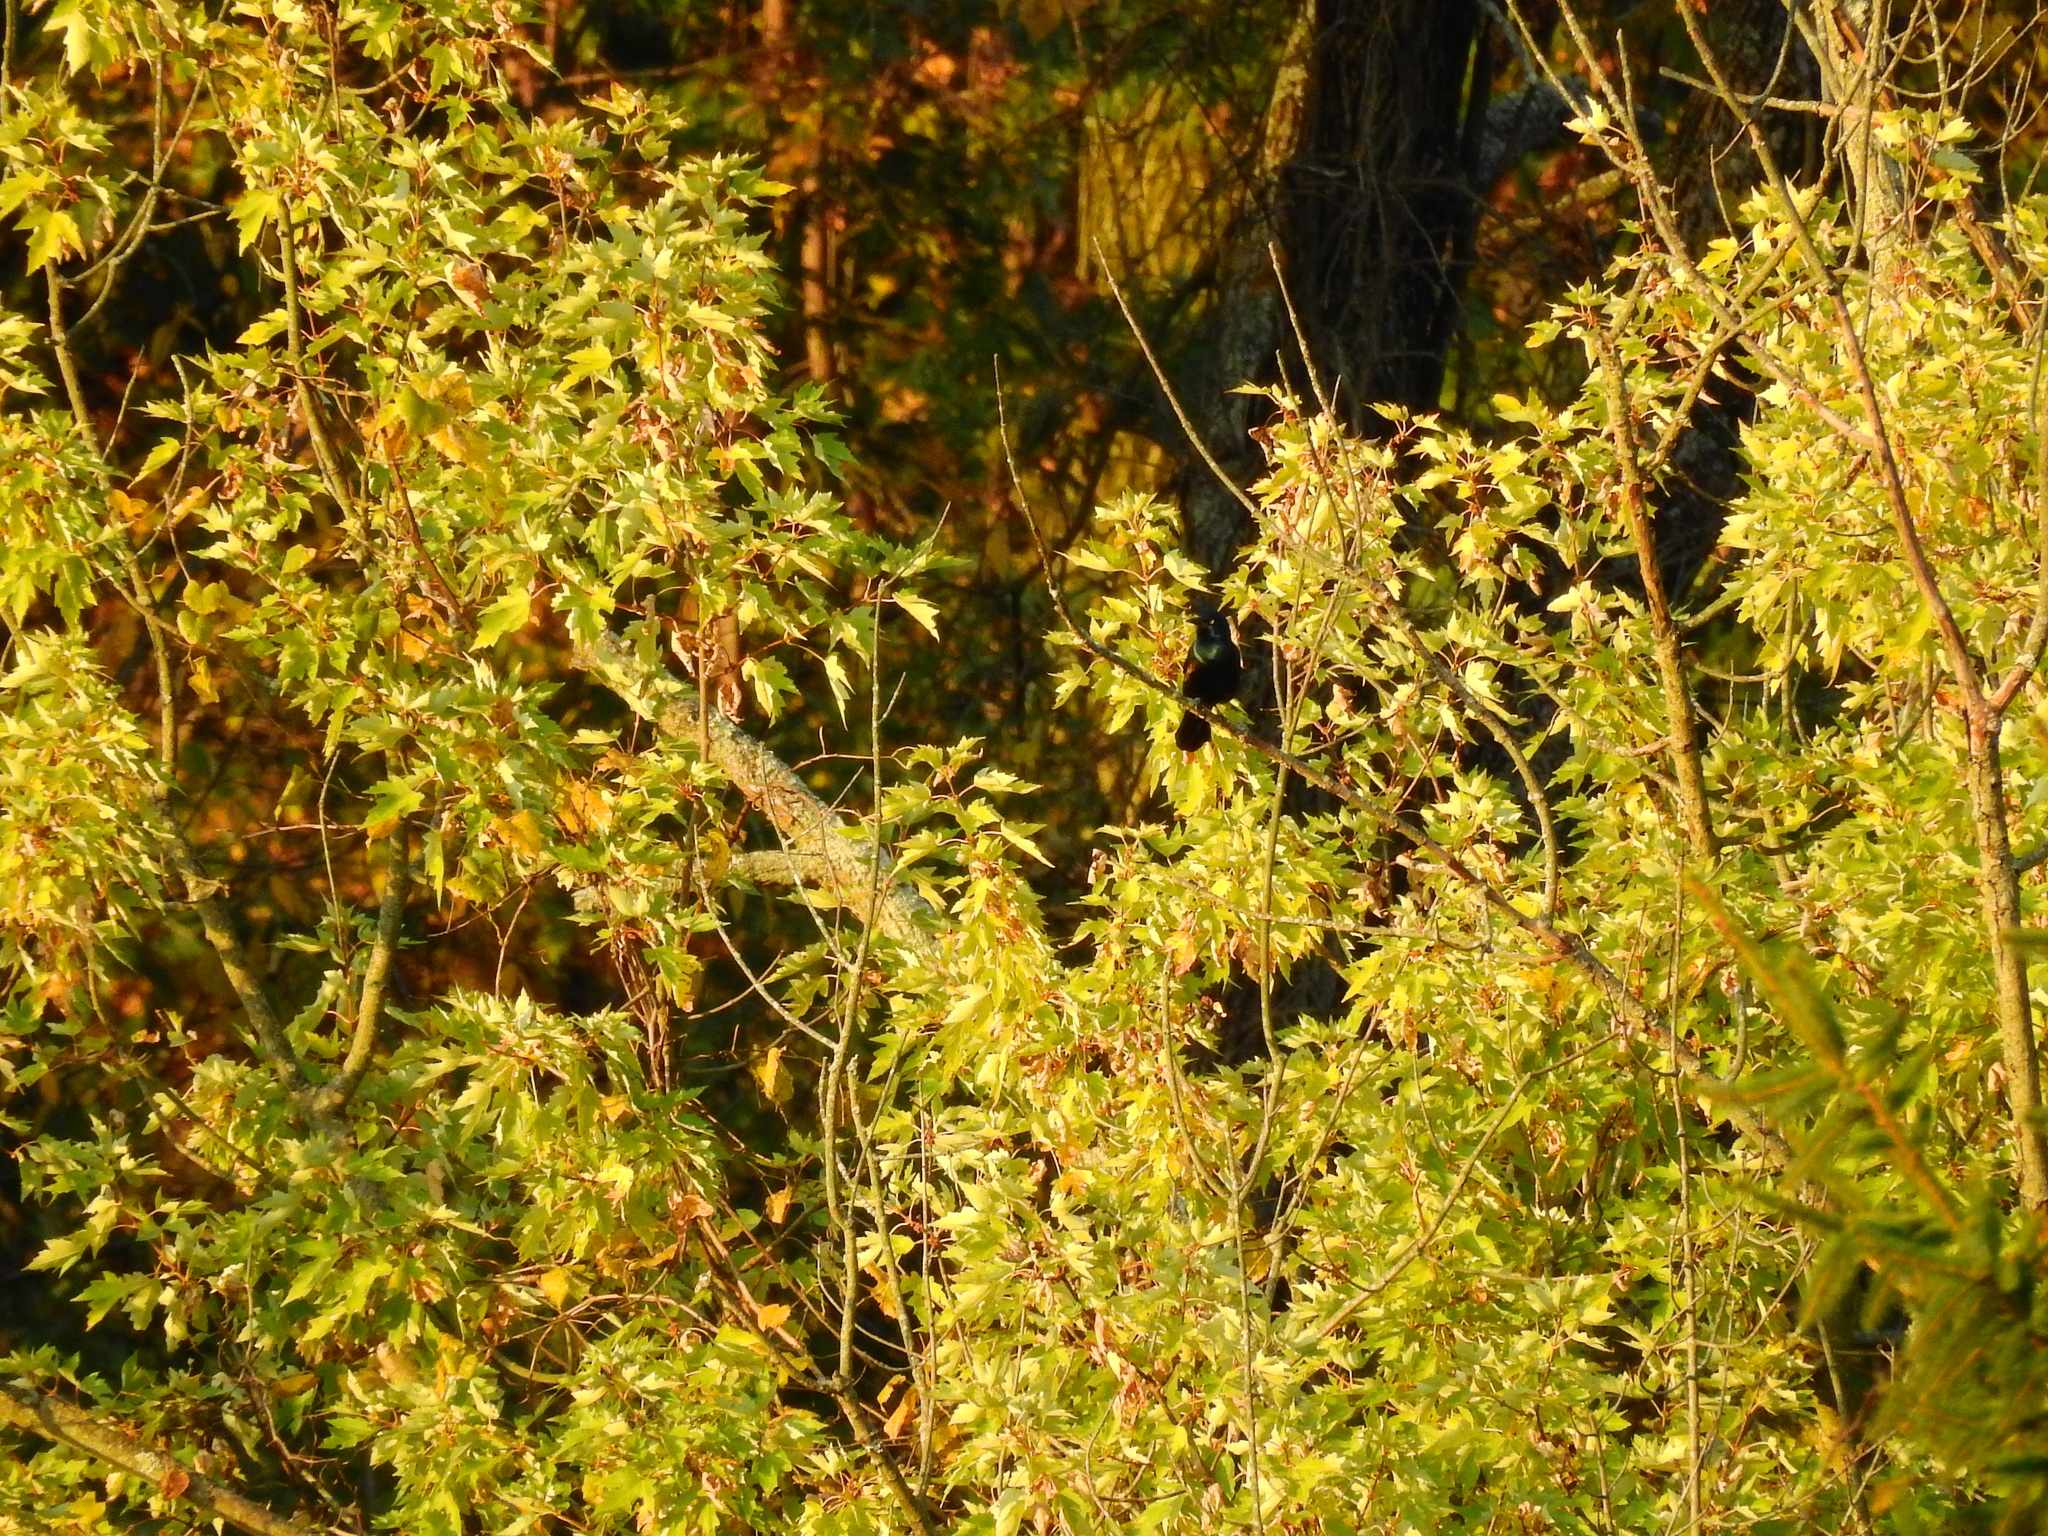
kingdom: Animalia
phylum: Chordata
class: Aves
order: Passeriformes
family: Icteridae
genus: Quiscalus
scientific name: Quiscalus quiscula
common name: Common grackle
